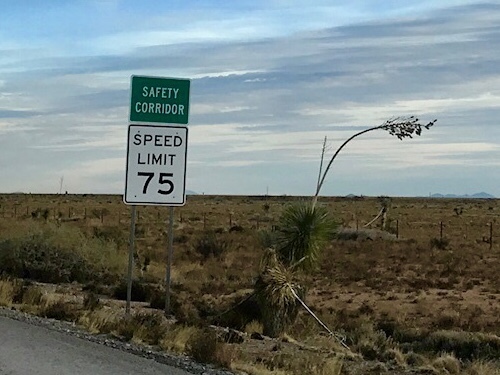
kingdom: Plantae
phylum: Tracheophyta
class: Liliopsida
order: Asparagales
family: Asparagaceae
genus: Yucca
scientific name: Yucca elata
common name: Palmella
